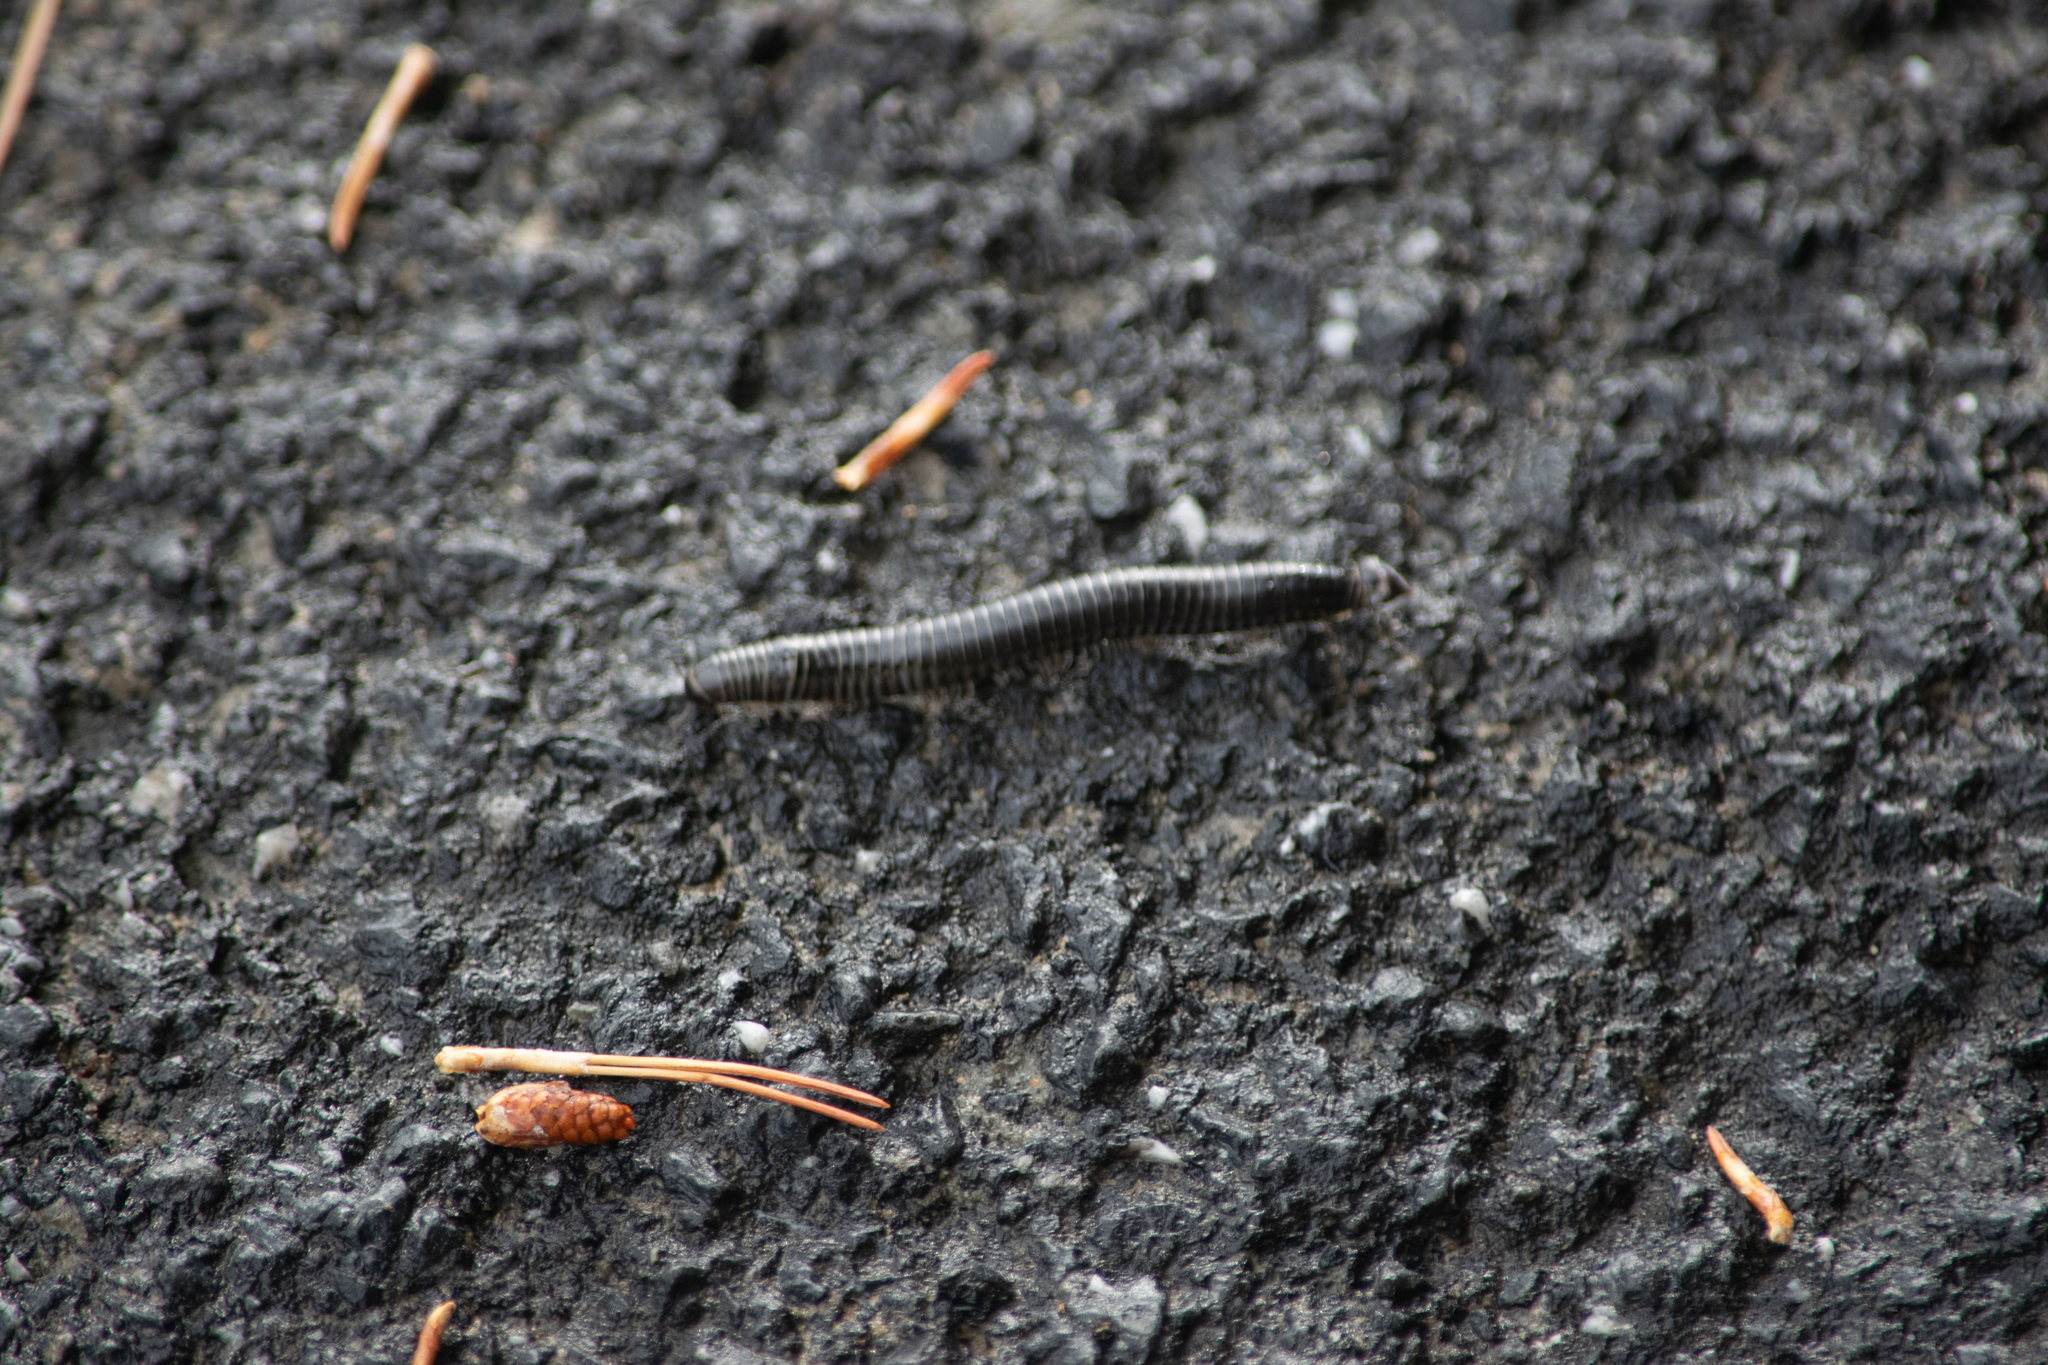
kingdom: Animalia
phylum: Arthropoda
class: Diplopoda
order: Julida
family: Julidae
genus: Ommatoiulus
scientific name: Ommatoiulus sabulosus
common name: Striped millipede
